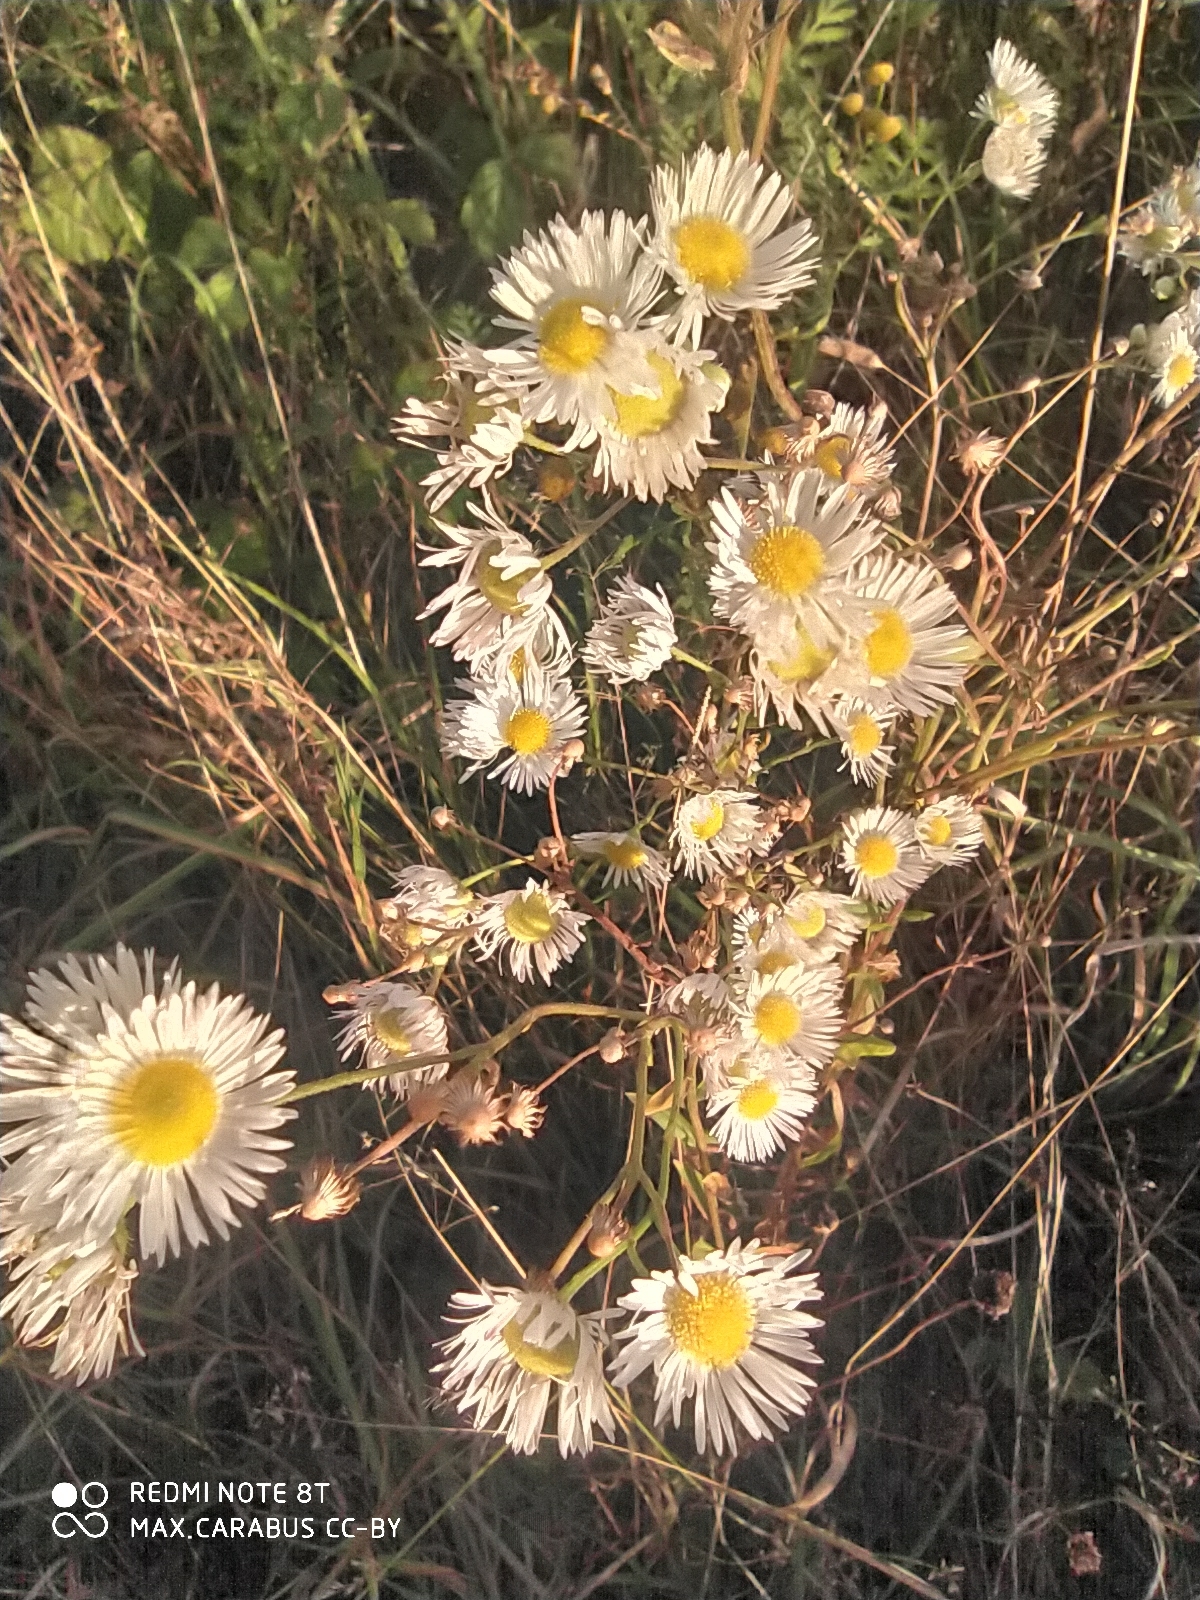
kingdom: Plantae
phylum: Tracheophyta
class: Magnoliopsida
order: Asterales
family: Asteraceae
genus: Erigeron
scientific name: Erigeron annuus
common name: Tall fleabane
